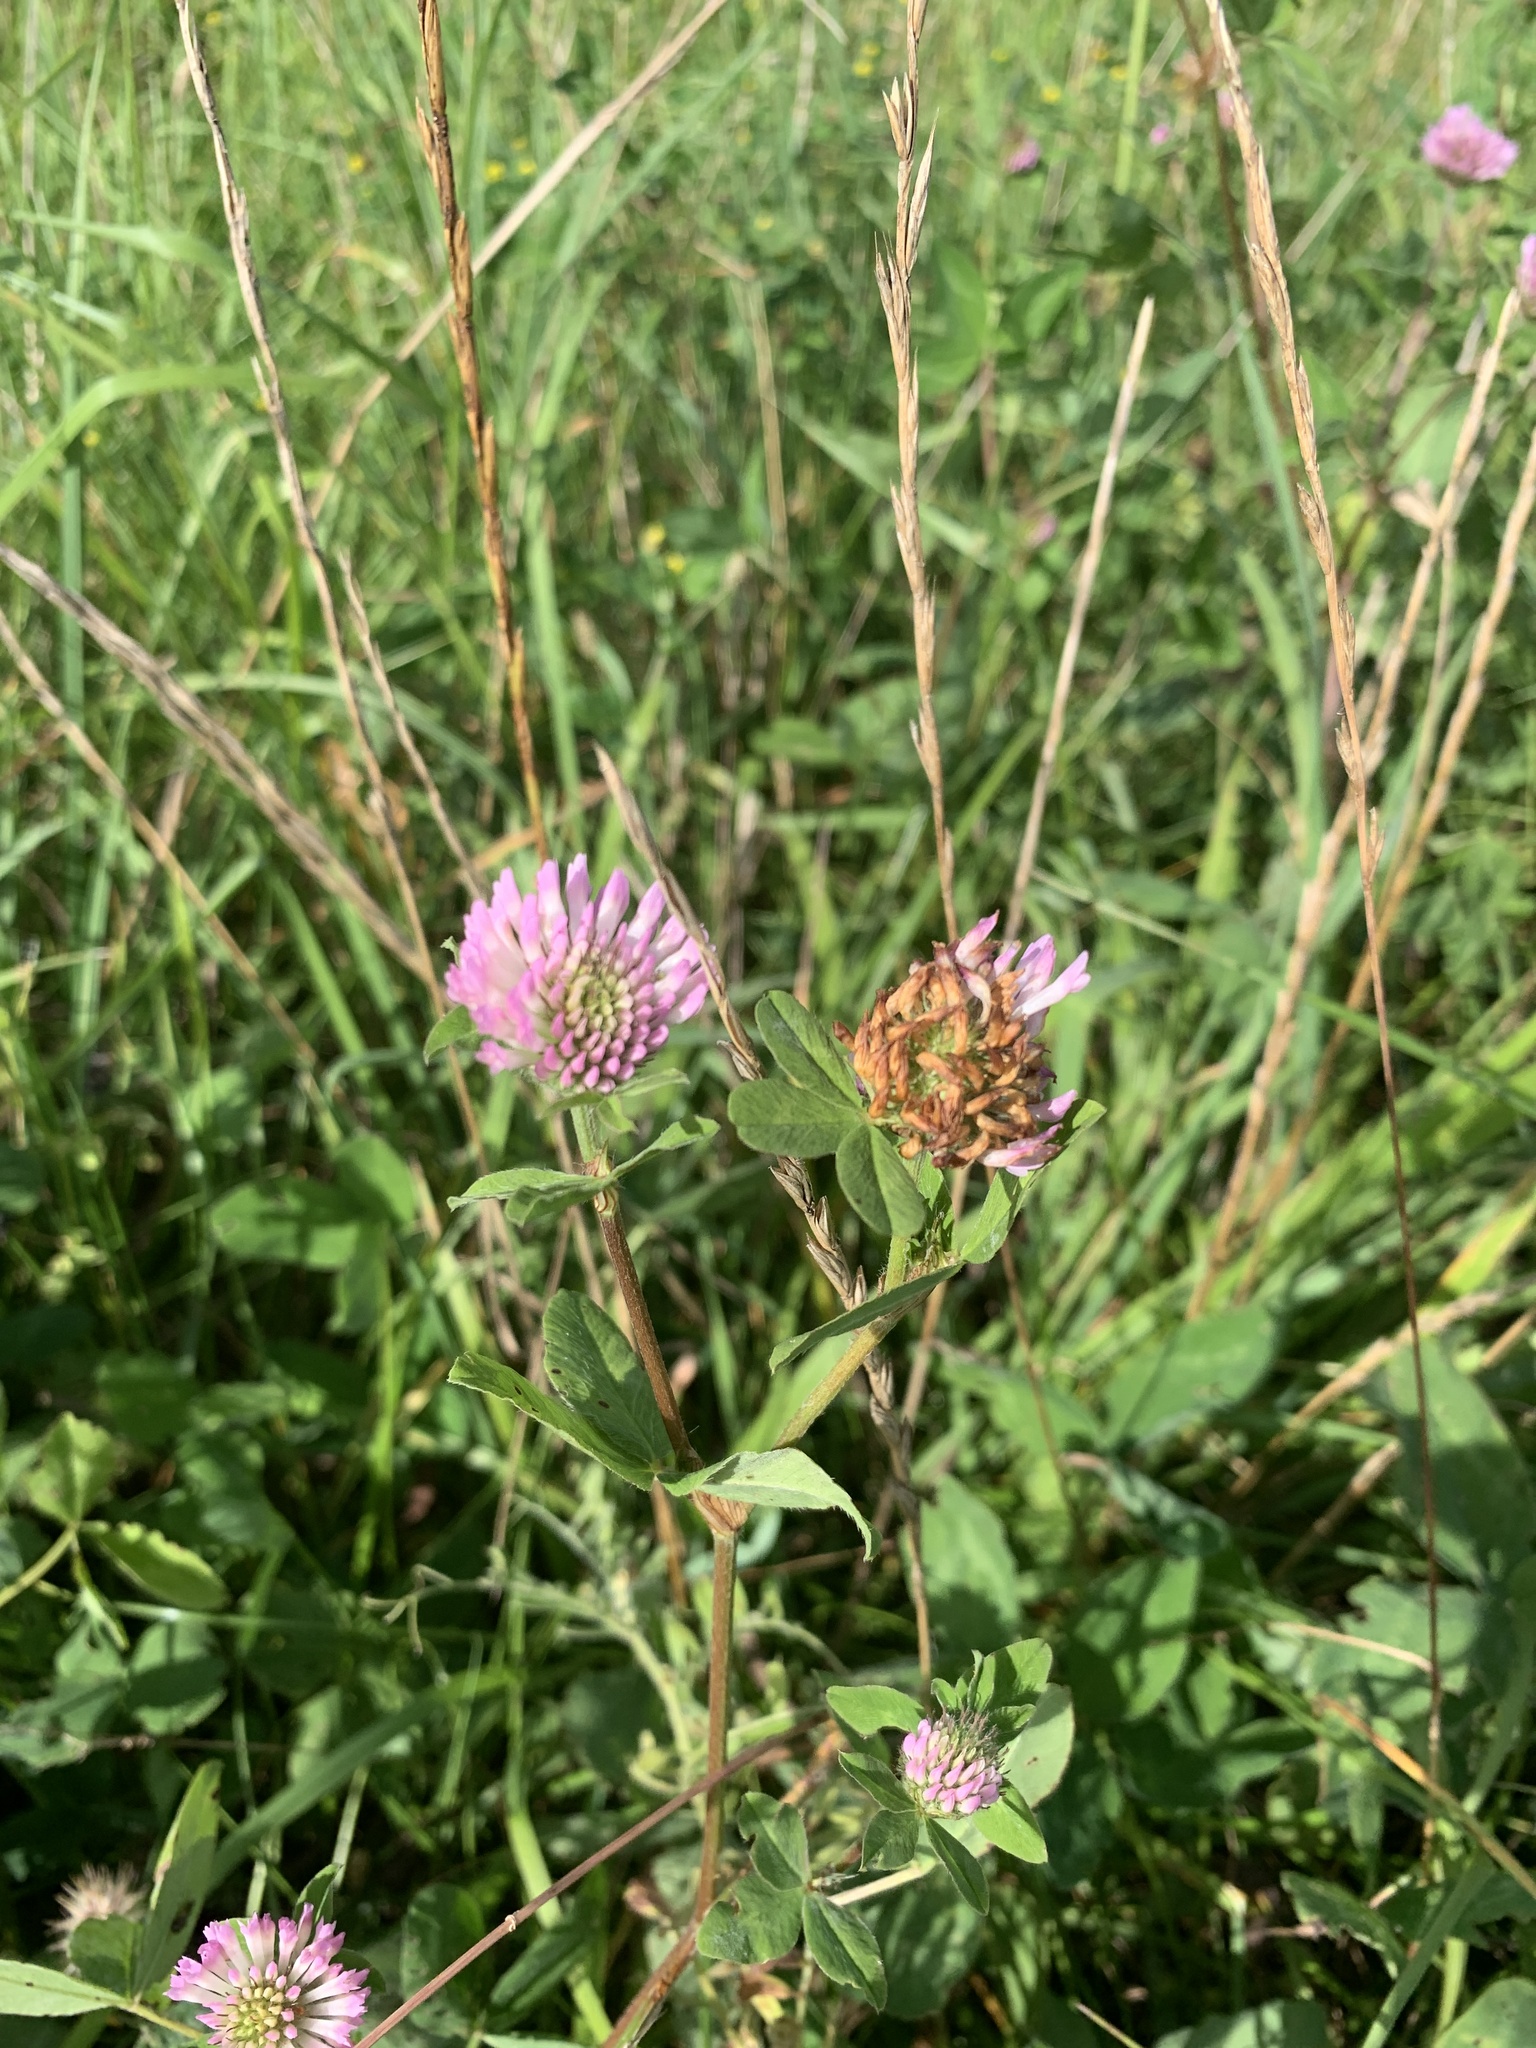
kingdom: Plantae
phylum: Tracheophyta
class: Magnoliopsida
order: Fabales
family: Fabaceae
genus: Trifolium
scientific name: Trifolium pratense
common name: Red clover
